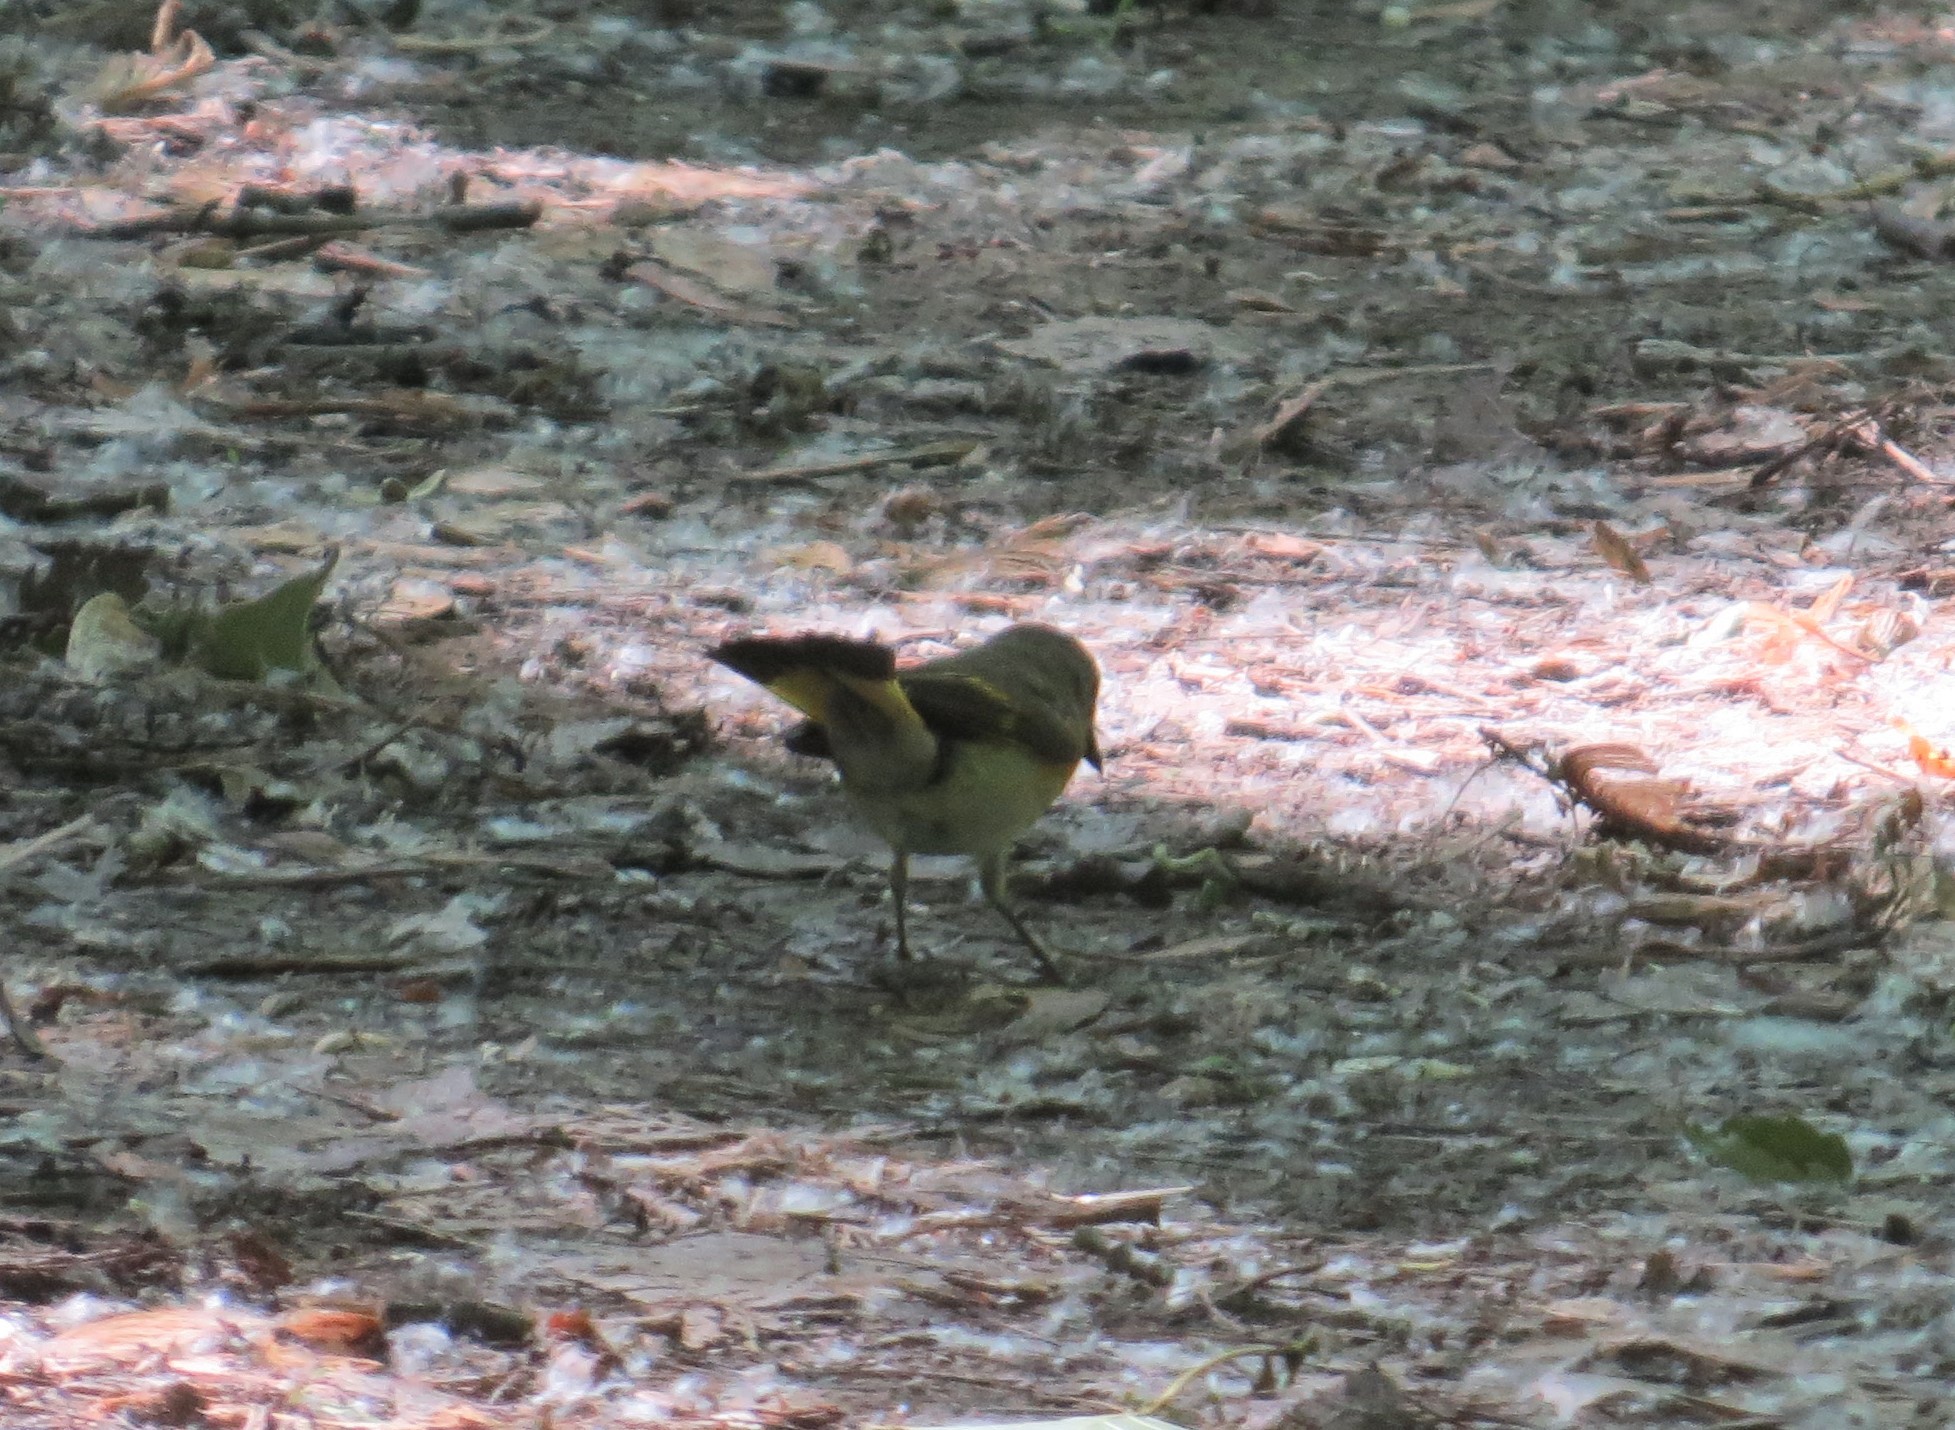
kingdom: Animalia
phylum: Chordata
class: Aves
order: Passeriformes
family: Parulidae
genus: Setophaga
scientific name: Setophaga ruticilla
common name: American redstart
